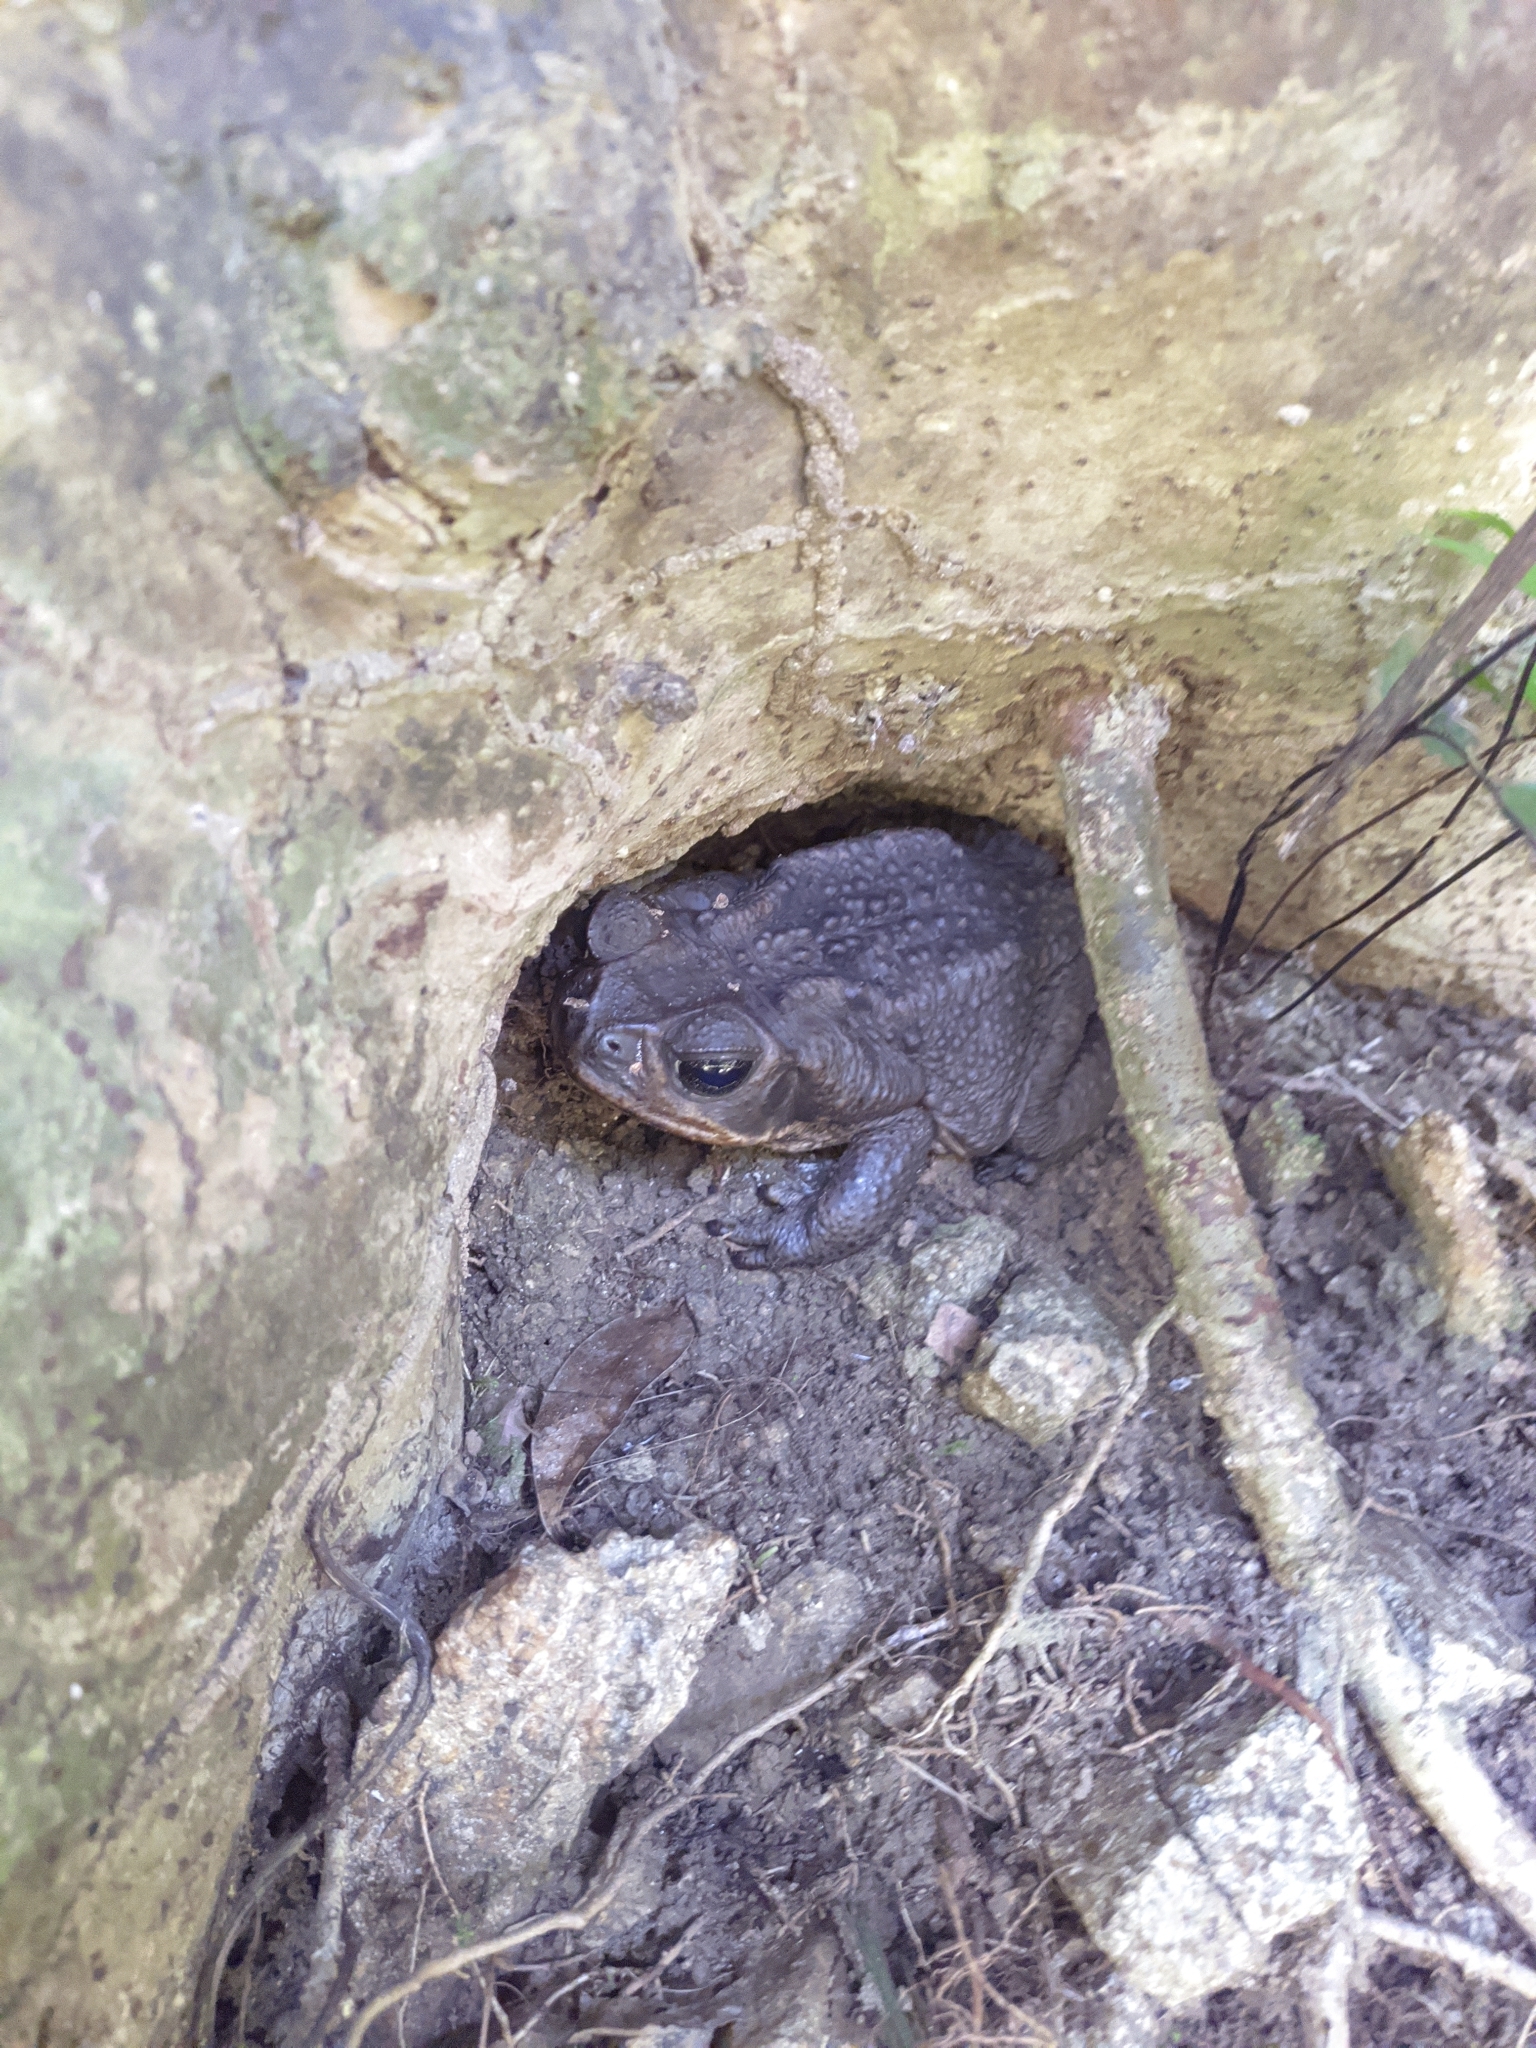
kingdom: Animalia
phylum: Chordata
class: Amphibia
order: Anura
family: Bufonidae
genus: Rhinella
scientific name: Rhinella horribilis
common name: Mesoamerican cane toad
